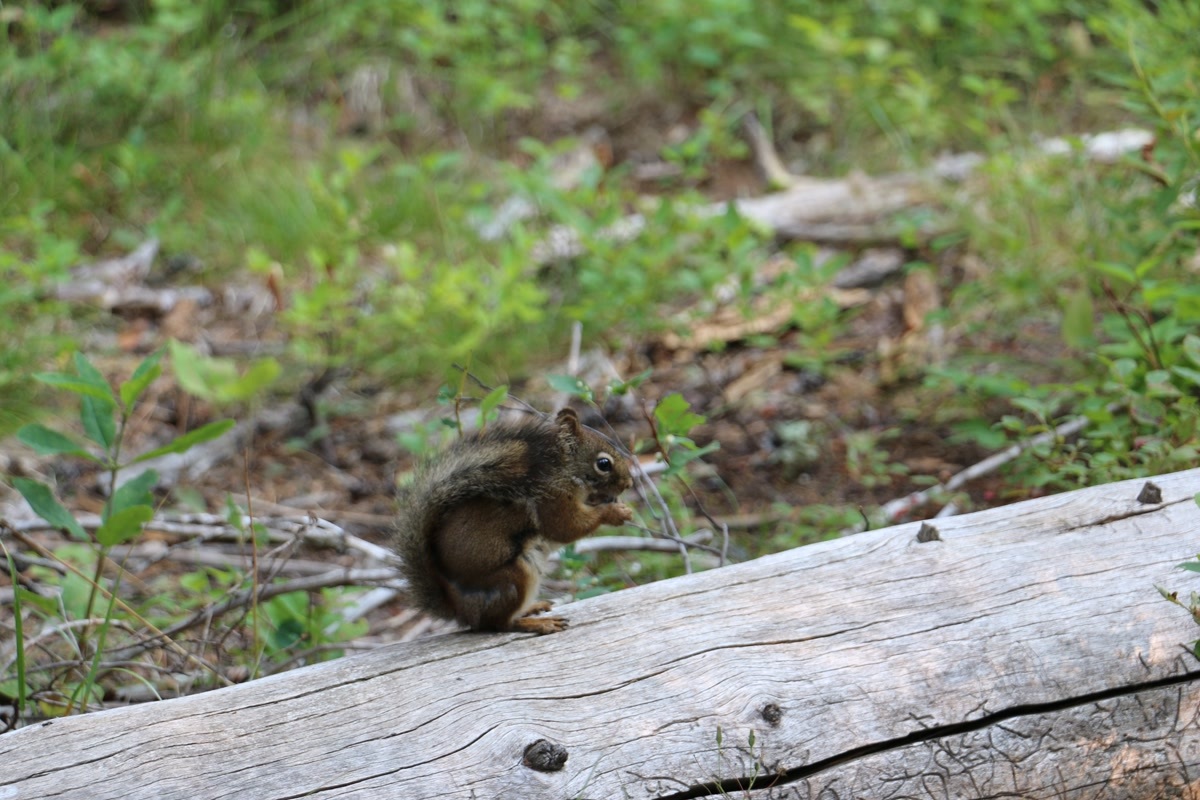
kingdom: Animalia
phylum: Chordata
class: Mammalia
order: Rodentia
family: Sciuridae
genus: Tamiasciurus
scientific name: Tamiasciurus hudsonicus
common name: Red squirrel
